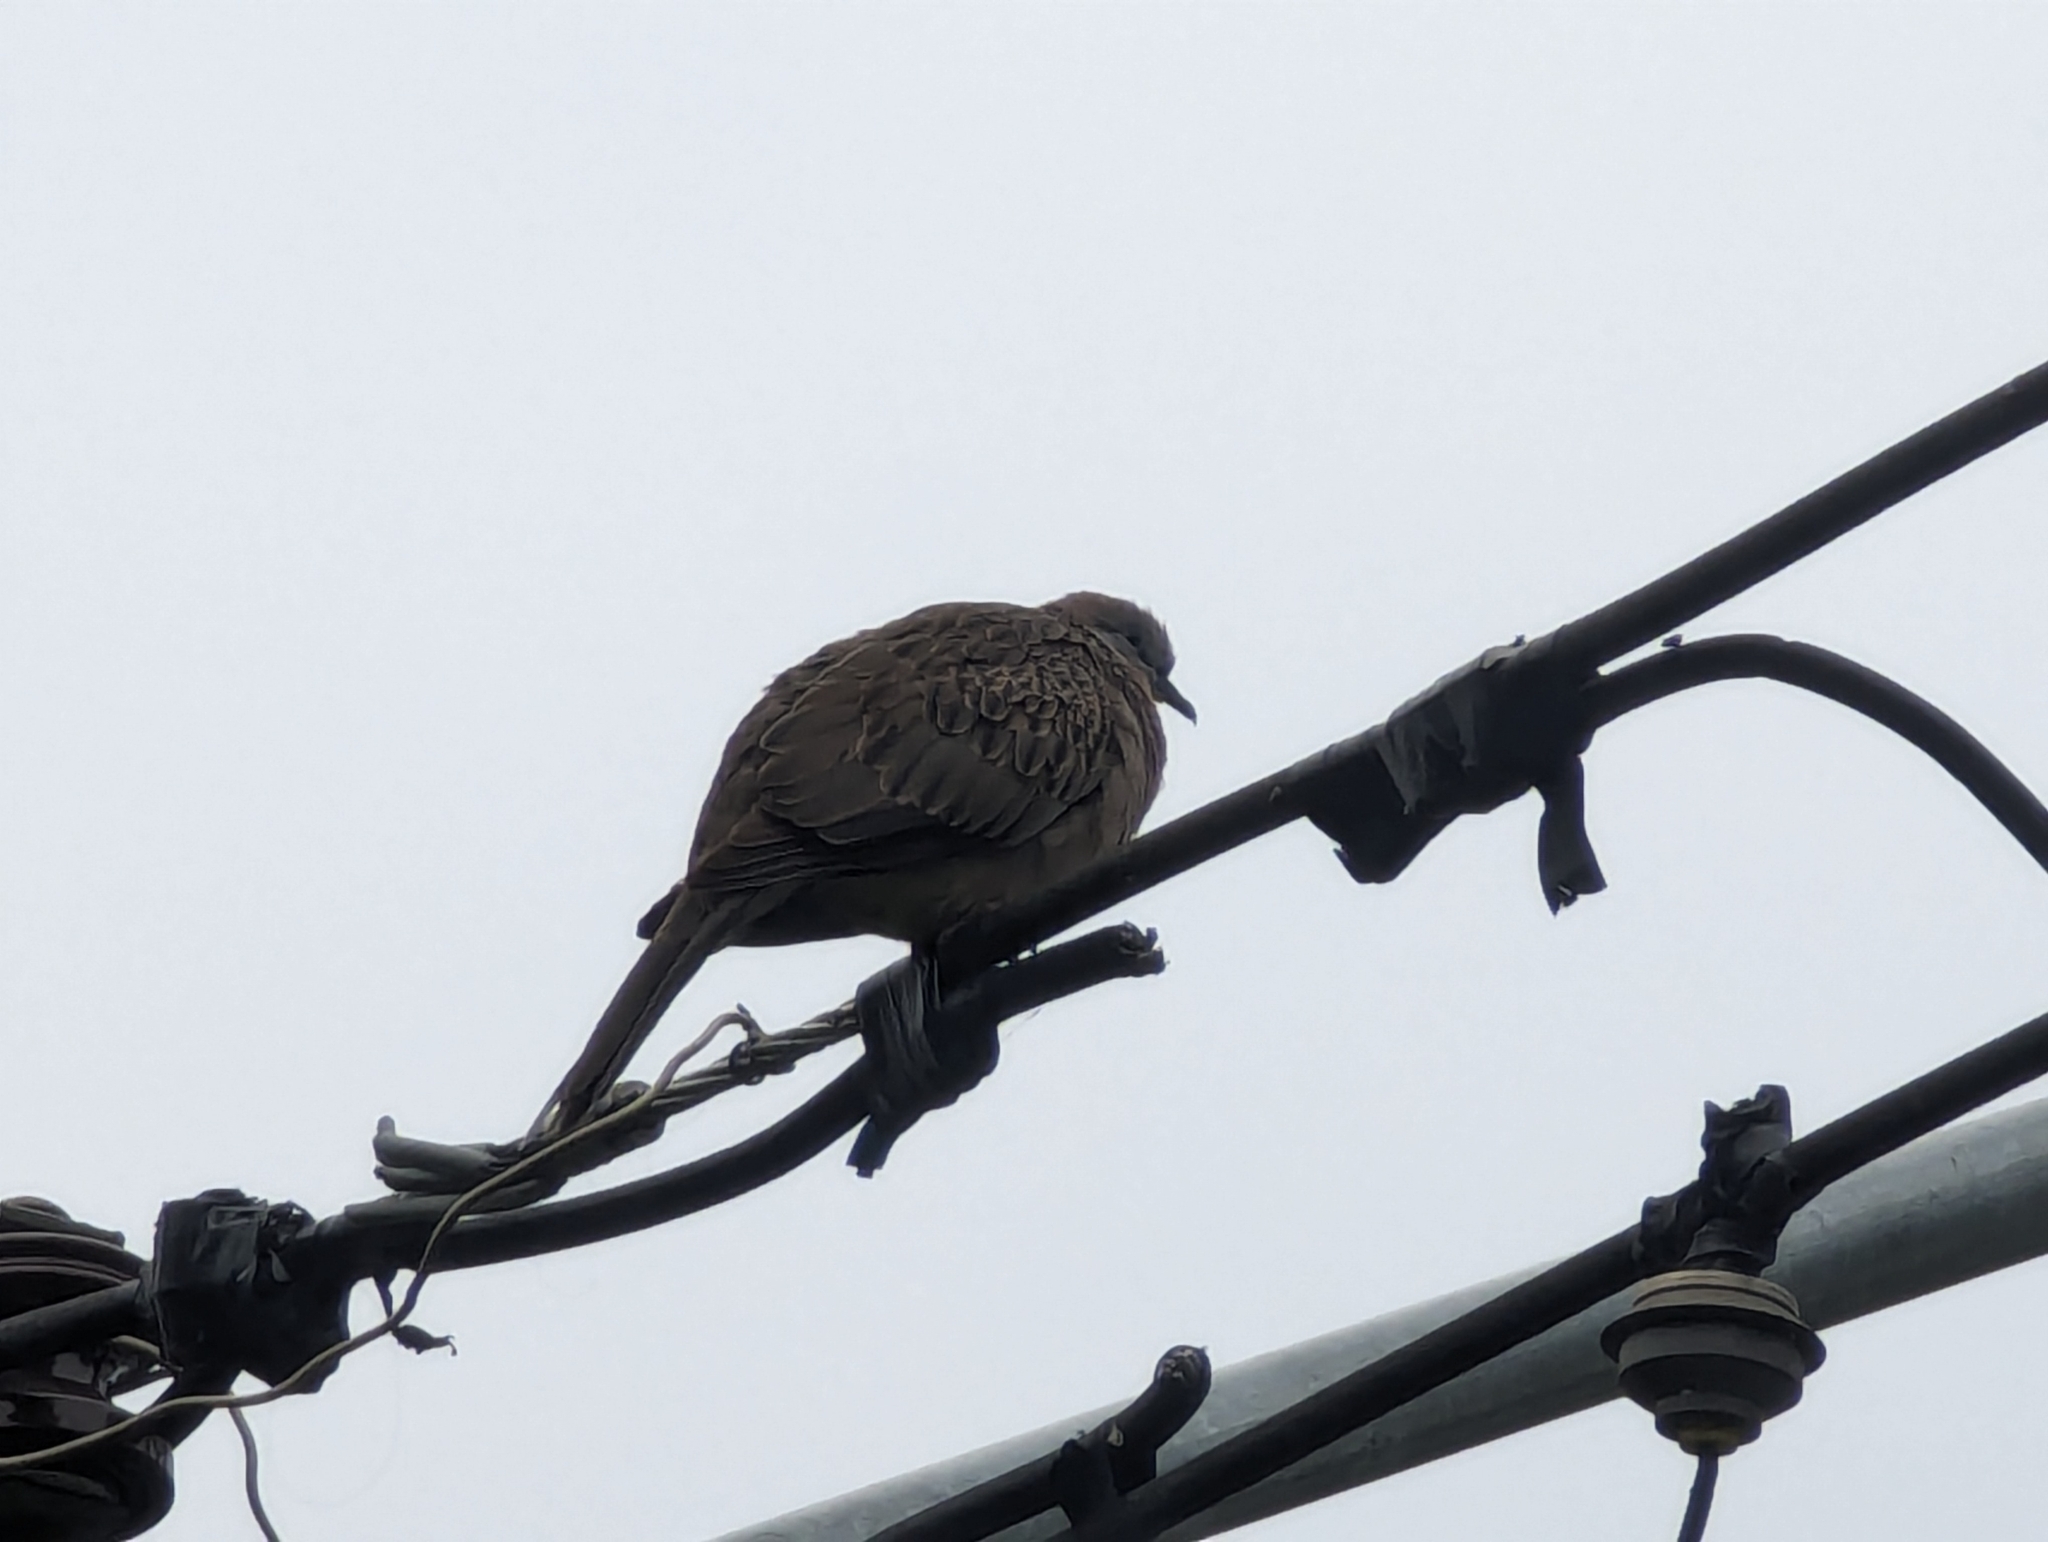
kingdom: Animalia
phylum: Chordata
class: Aves
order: Columbiformes
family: Columbidae
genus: Spilopelia
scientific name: Spilopelia chinensis
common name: Spotted dove
